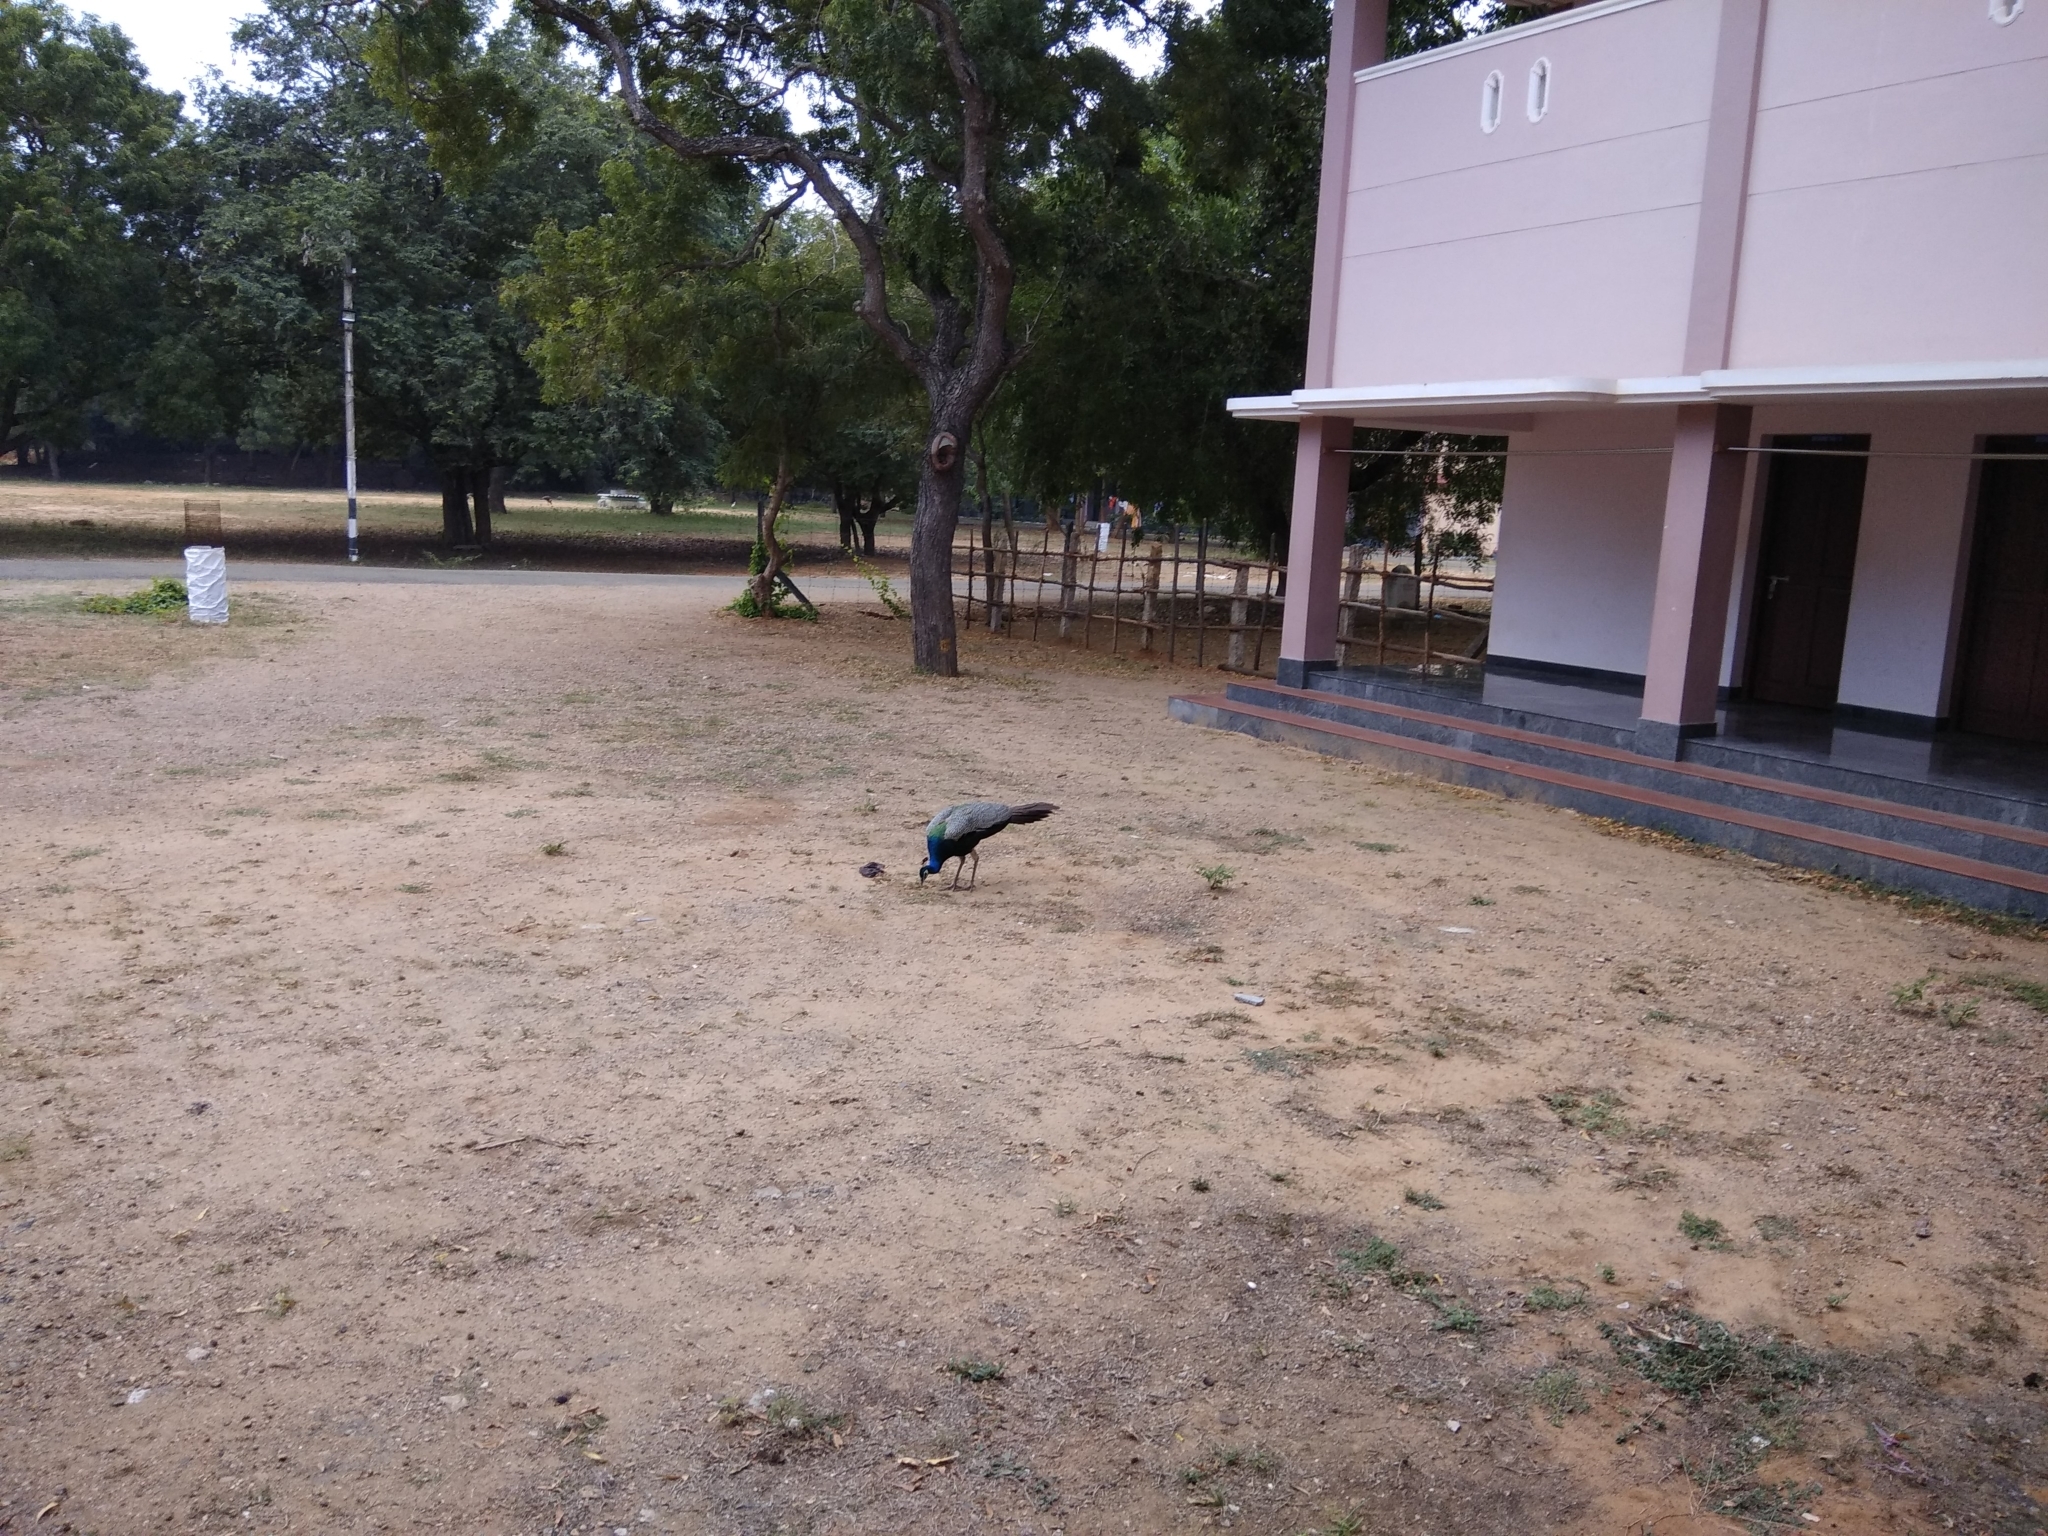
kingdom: Animalia
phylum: Chordata
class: Aves
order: Galliformes
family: Phasianidae
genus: Pavo
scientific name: Pavo cristatus
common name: Indian peafowl
